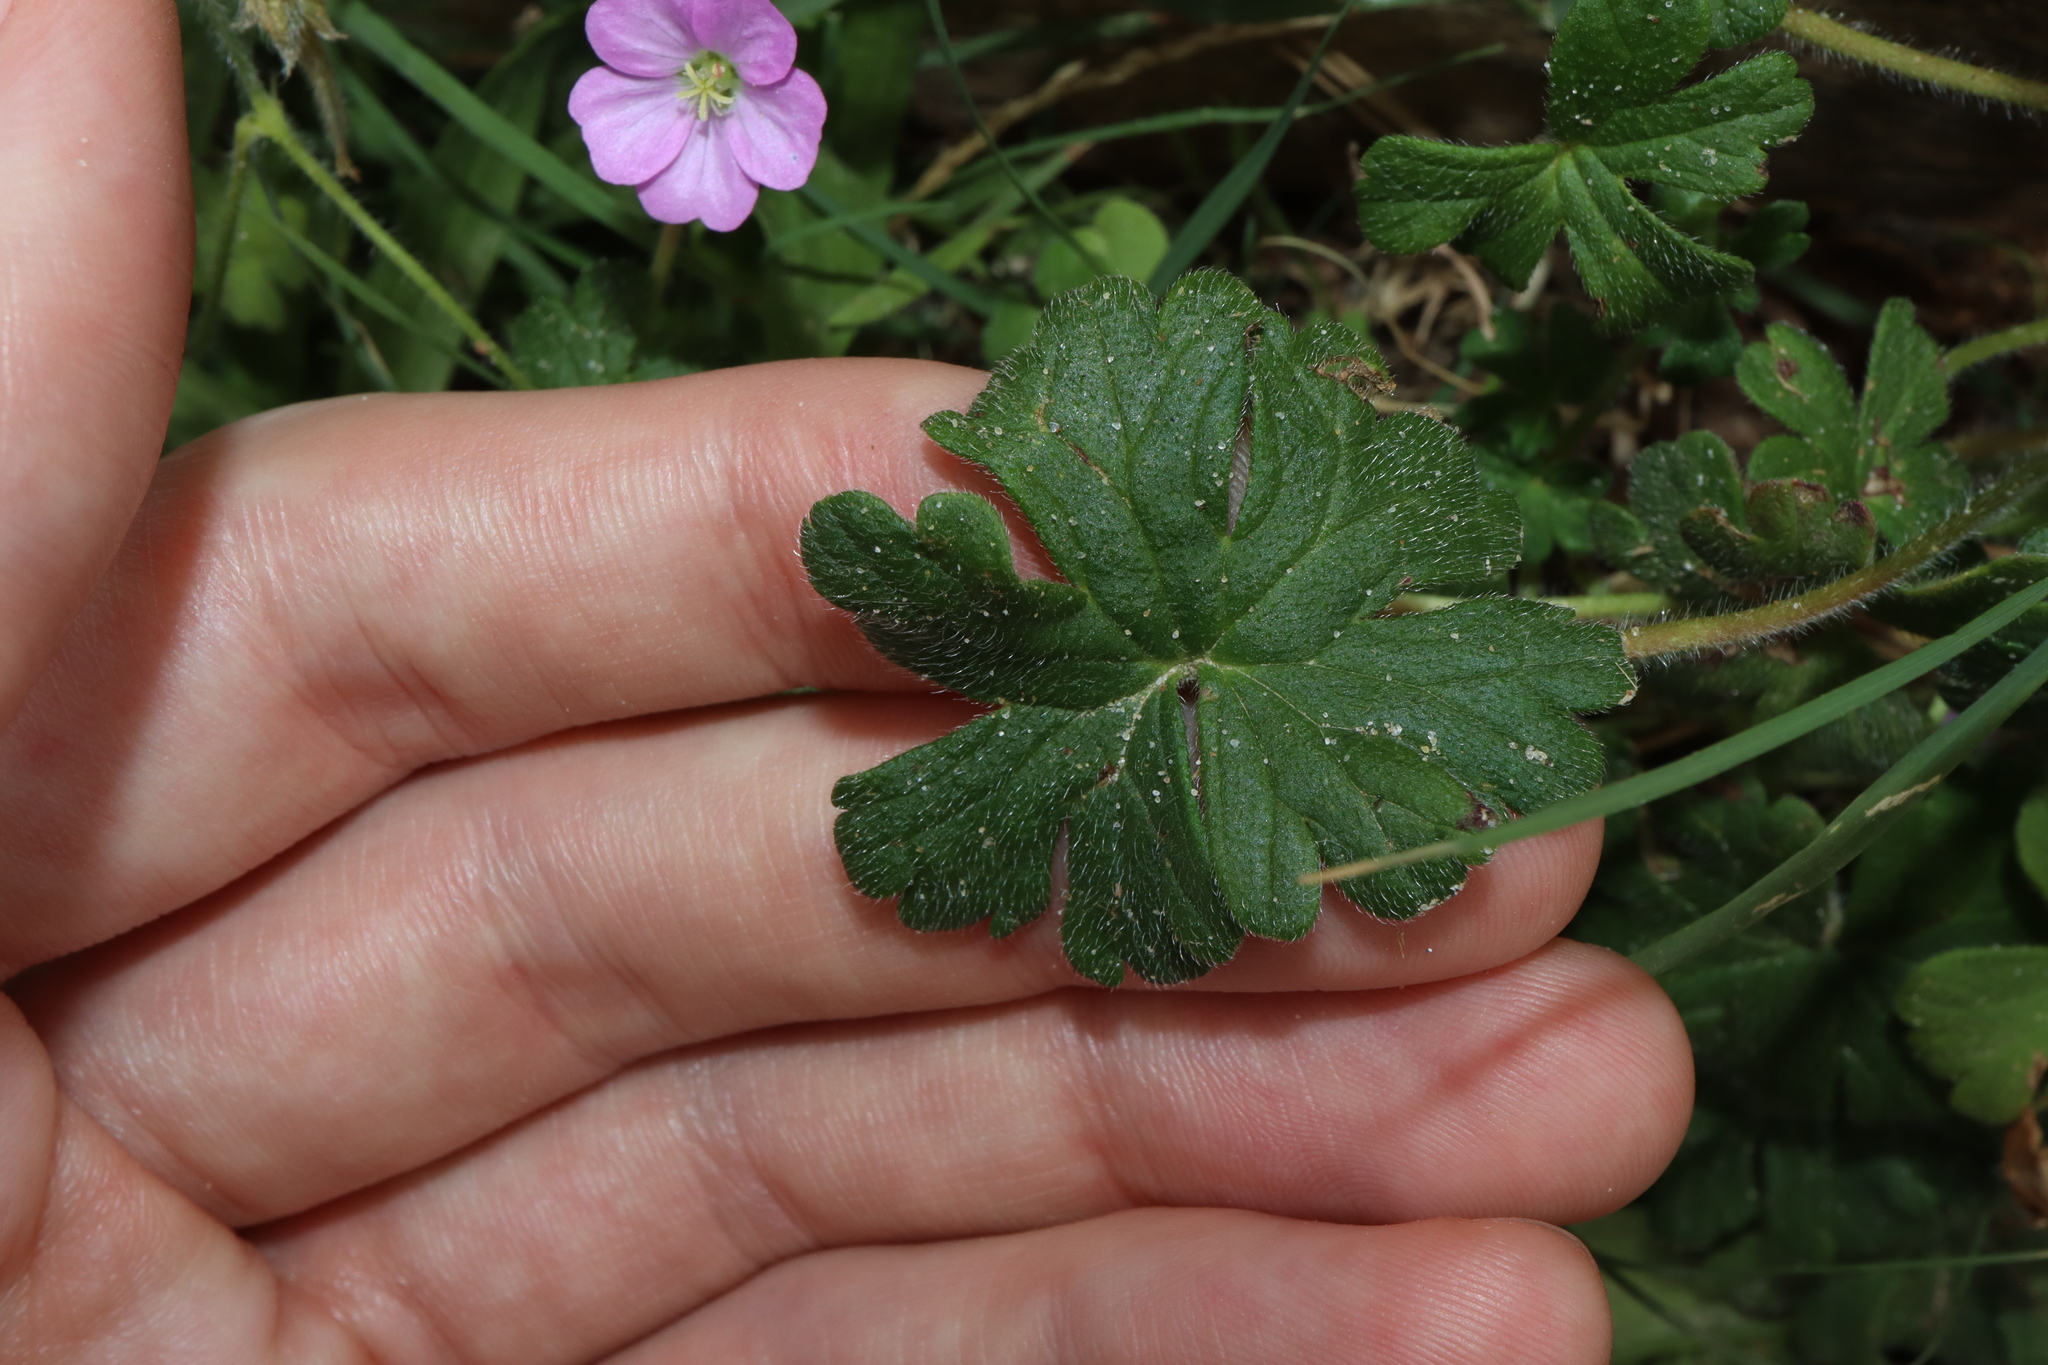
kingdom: Plantae
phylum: Tracheophyta
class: Magnoliopsida
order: Geraniales
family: Geraniaceae
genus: Geranium
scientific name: Geranium solanderi
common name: Solander's geranium
